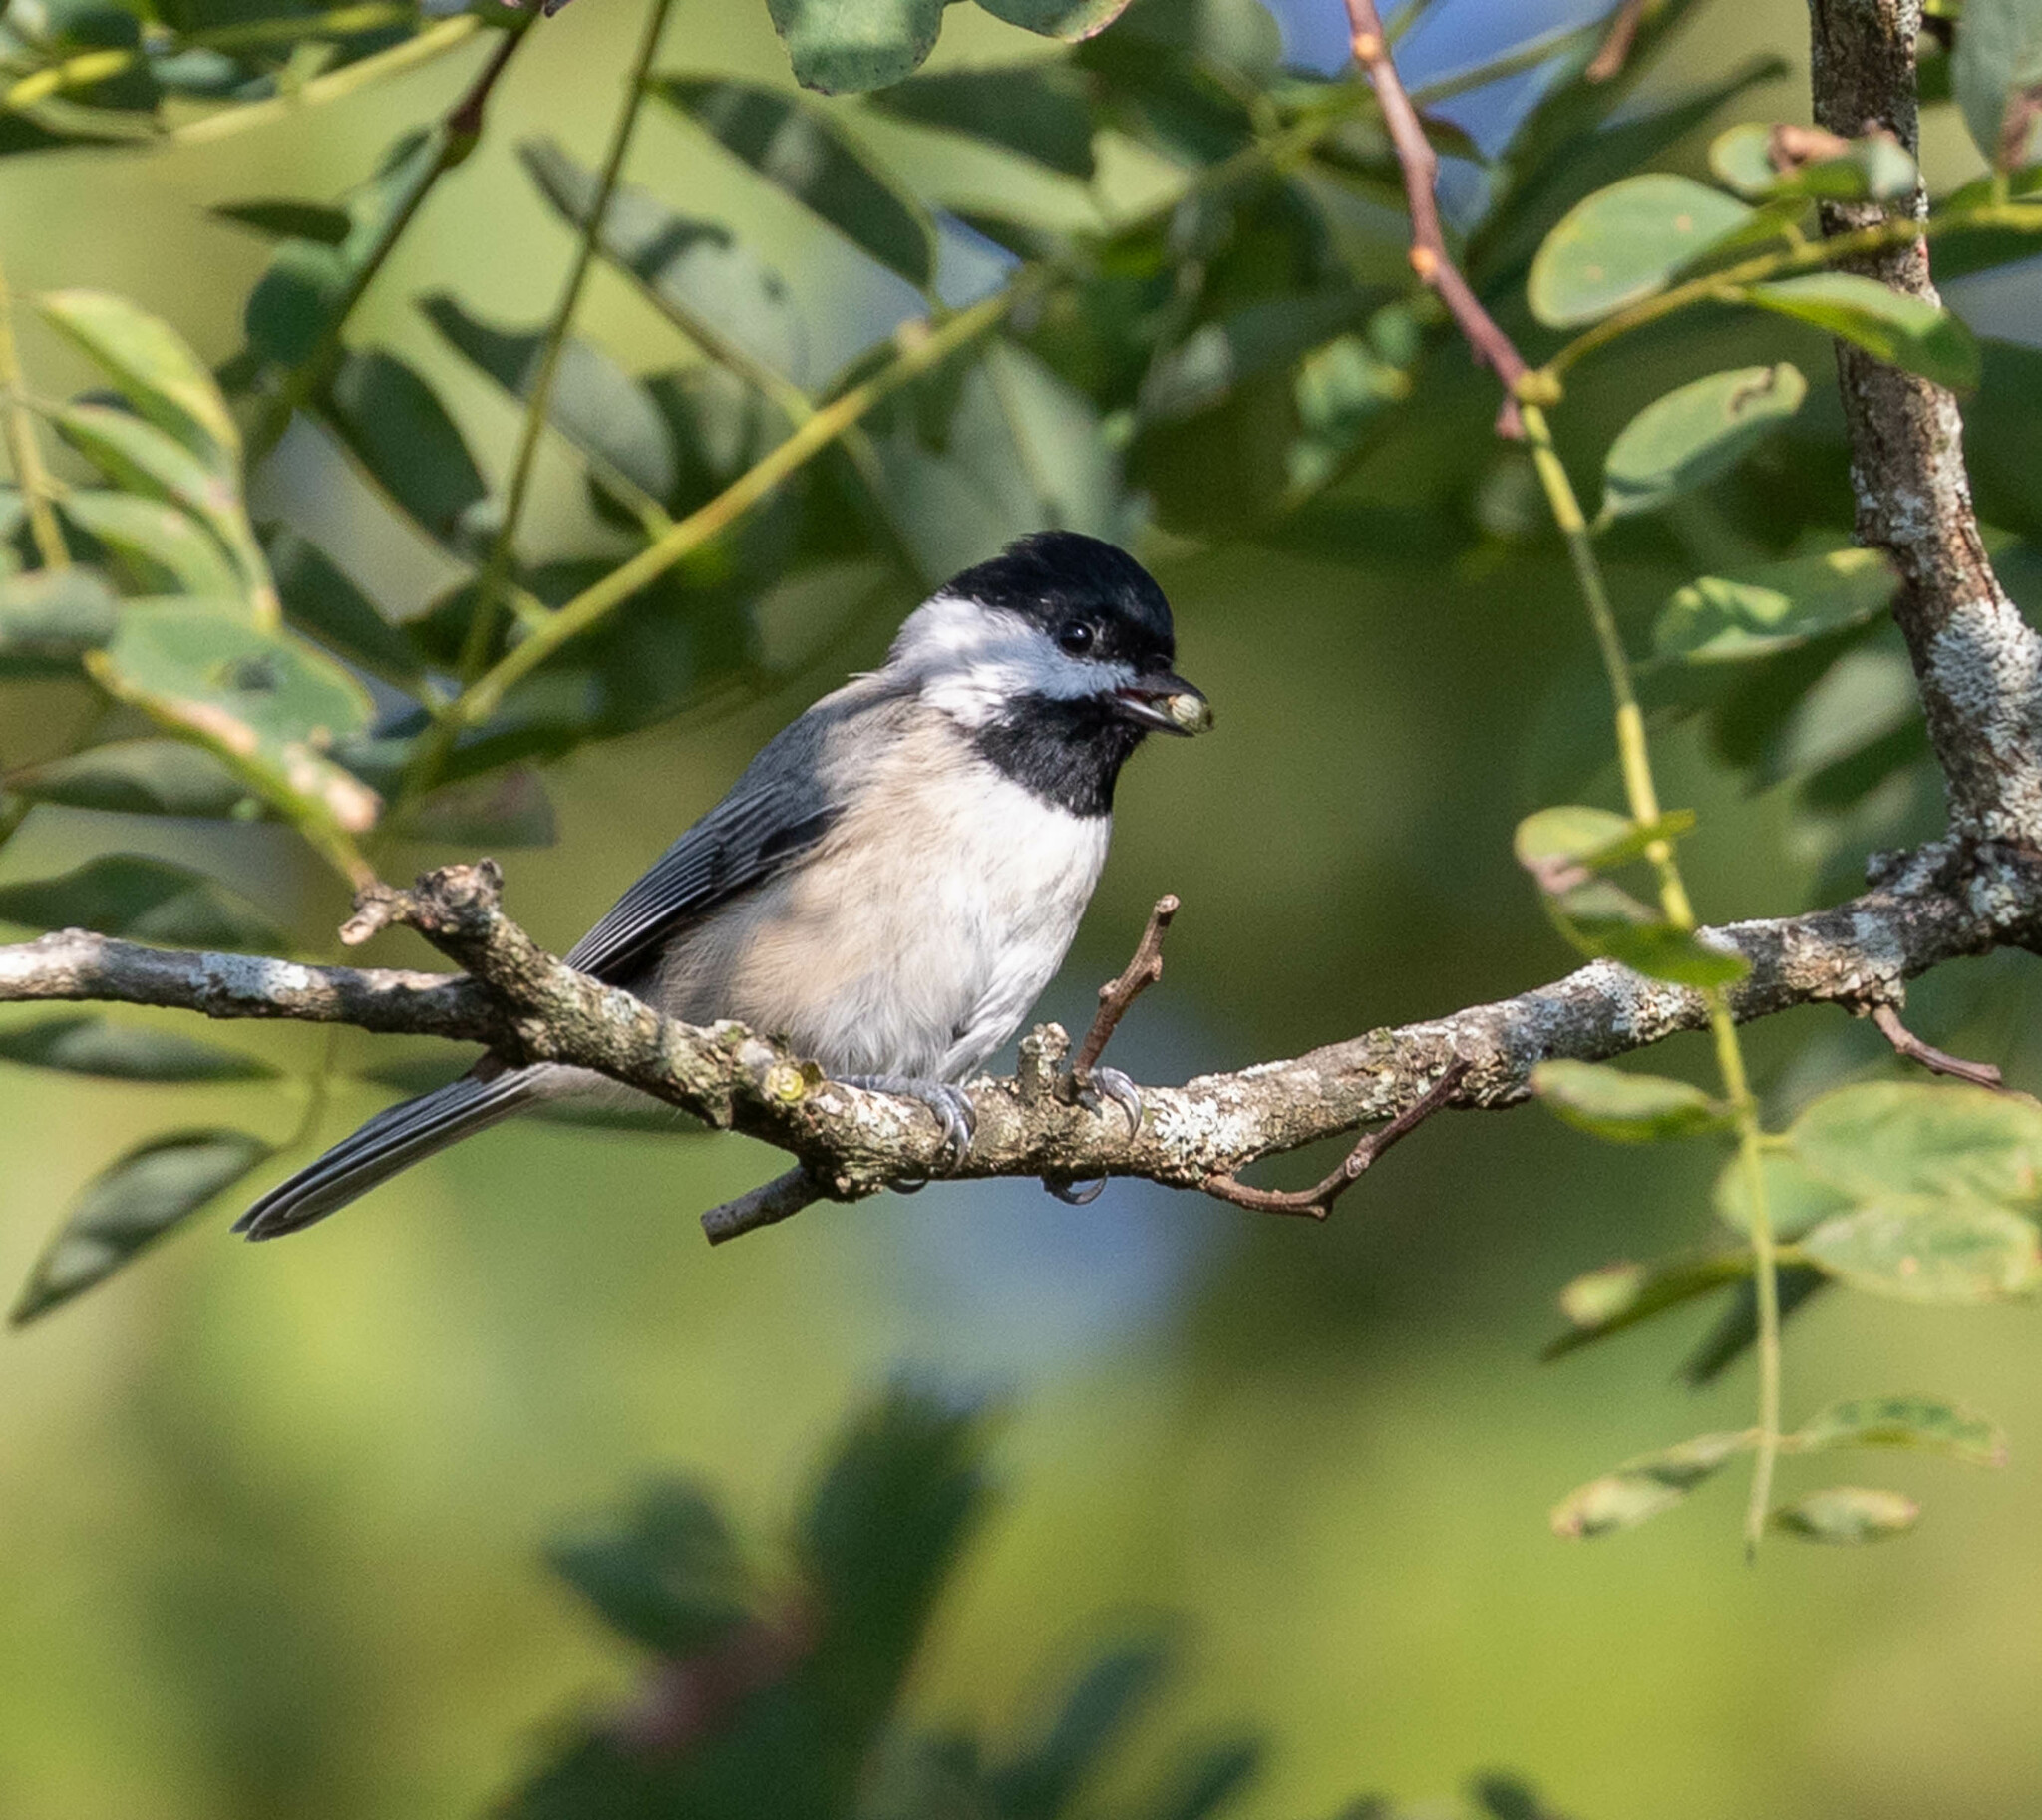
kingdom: Animalia
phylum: Chordata
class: Aves
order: Passeriformes
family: Paridae
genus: Poecile
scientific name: Poecile carolinensis
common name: Carolina chickadee
